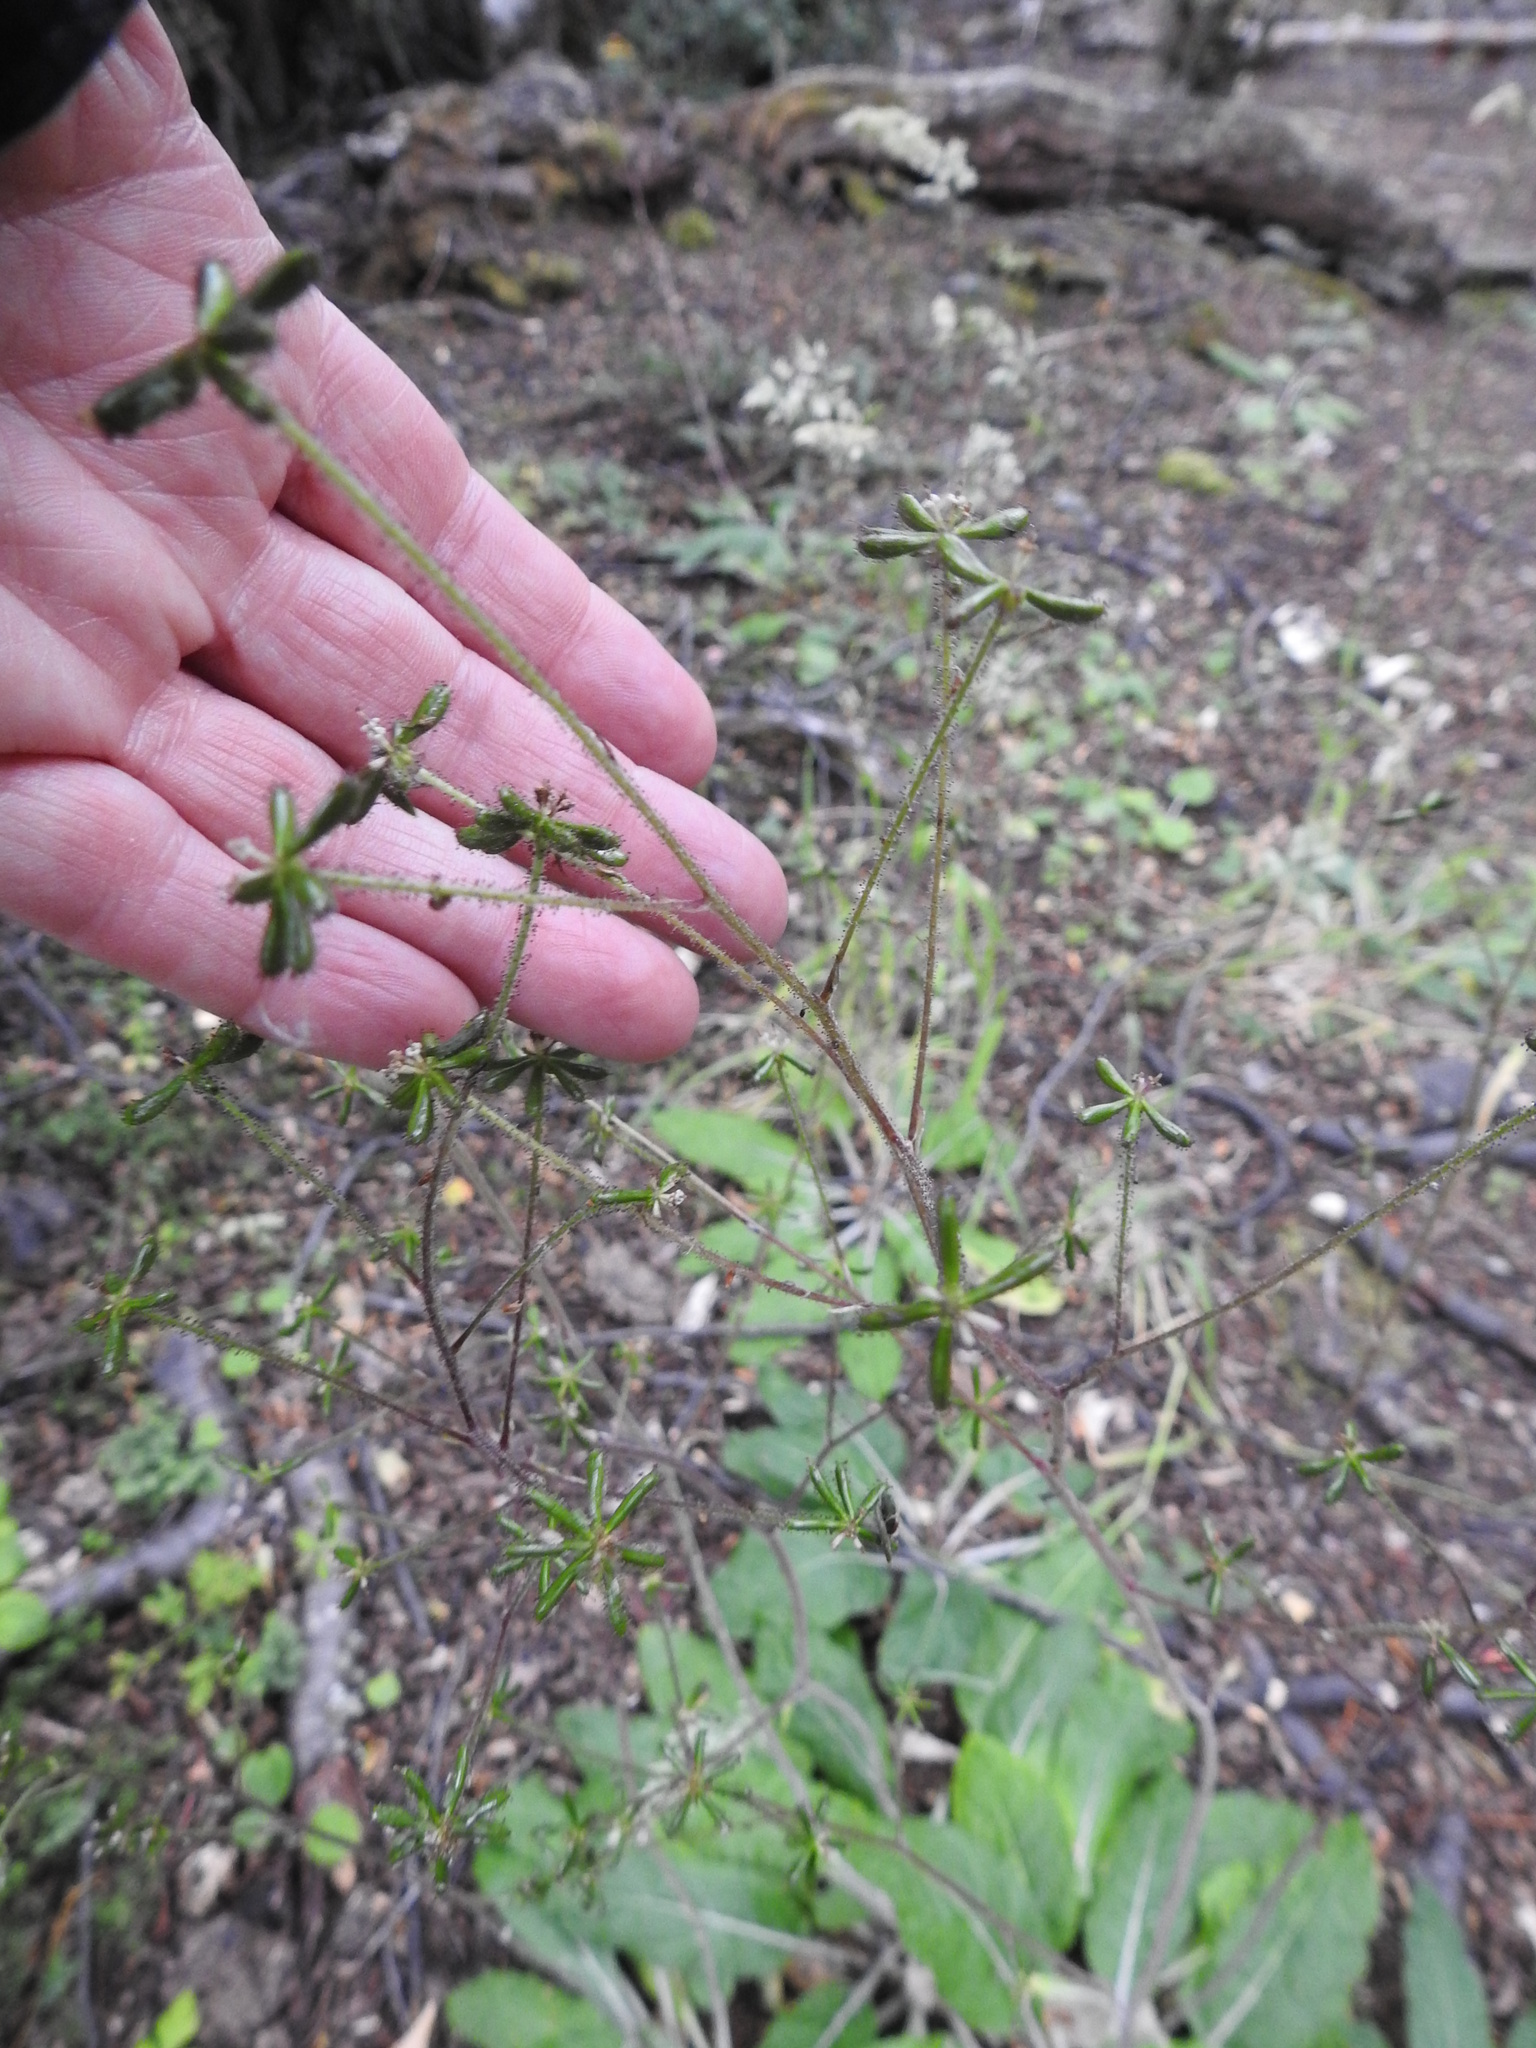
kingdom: Plantae
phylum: Tracheophyta
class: Magnoliopsida
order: Asterales
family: Asteraceae
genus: Adenocaulon
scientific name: Adenocaulon chilense
